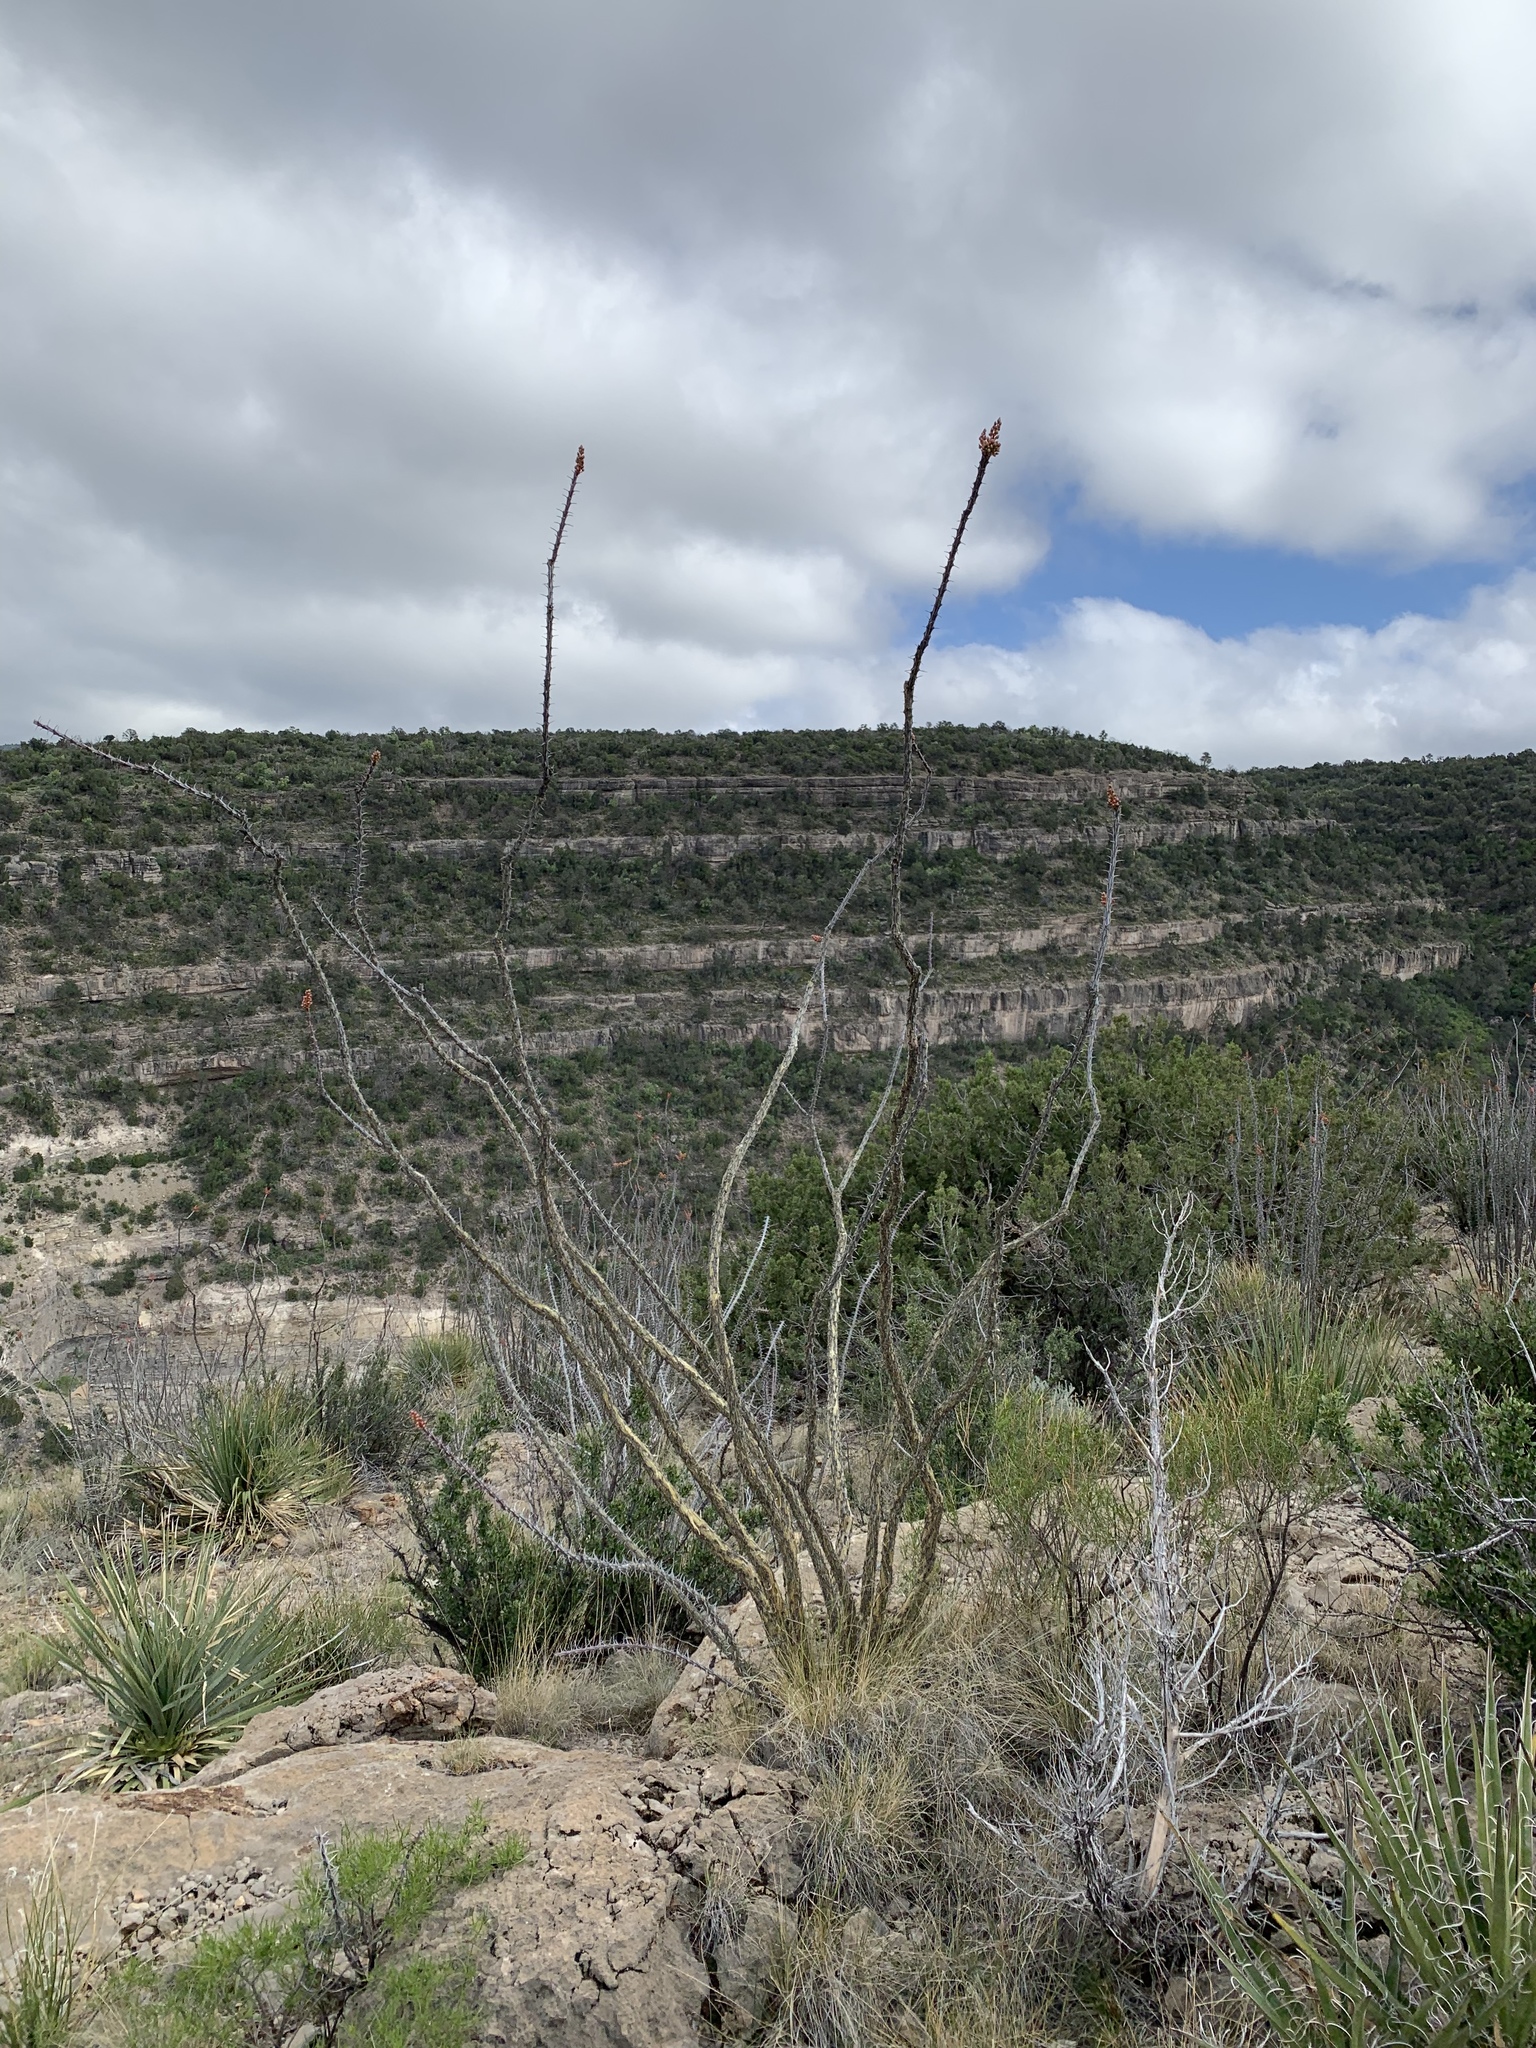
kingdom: Plantae
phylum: Tracheophyta
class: Magnoliopsida
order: Ericales
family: Fouquieriaceae
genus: Fouquieria
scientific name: Fouquieria splendens
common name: Vine-cactus
